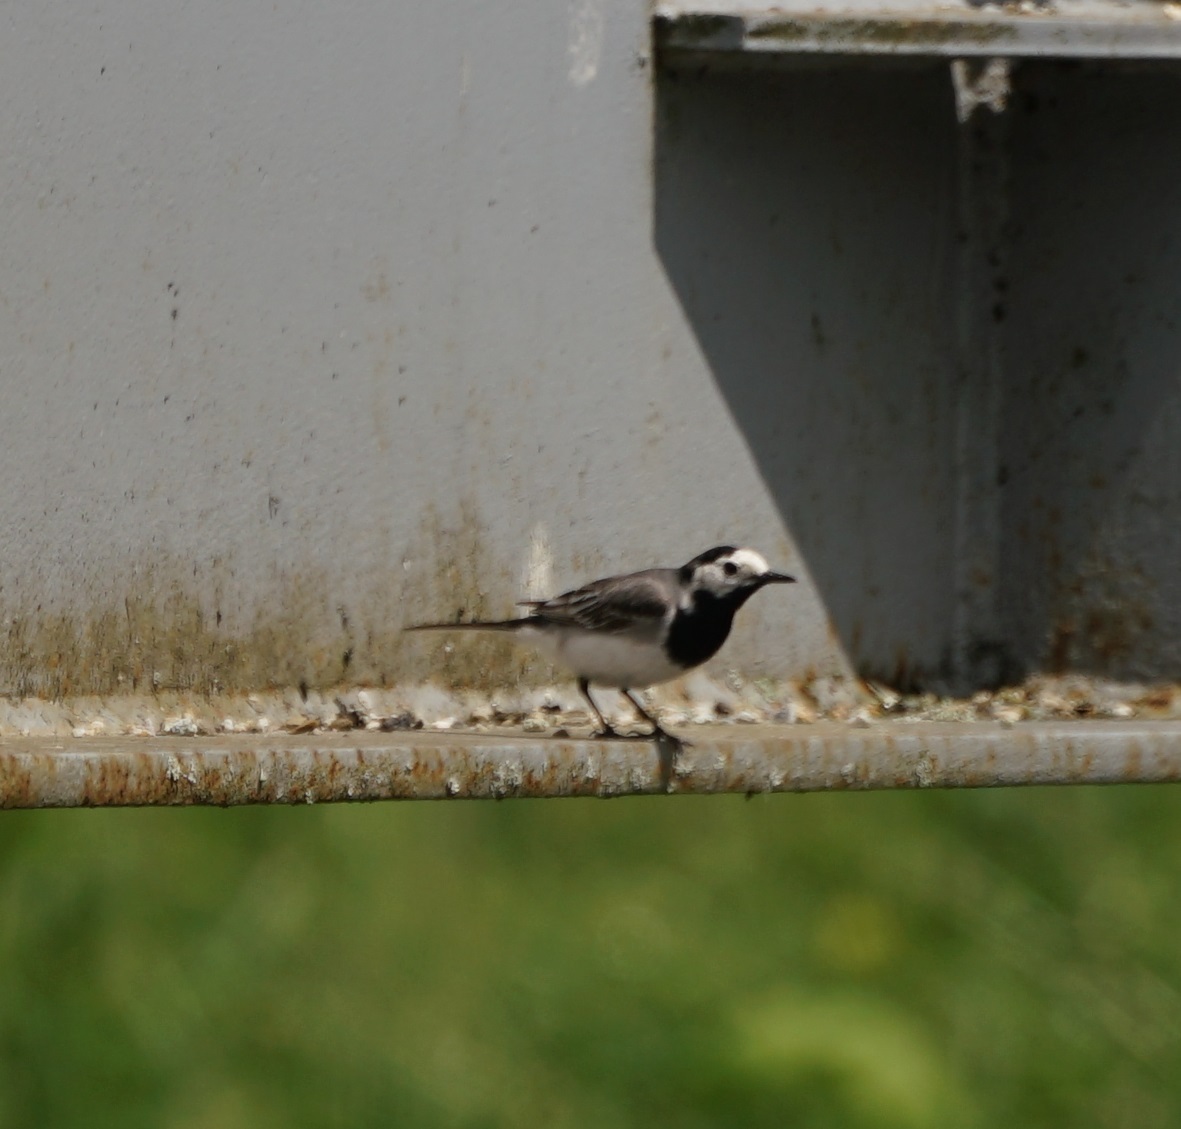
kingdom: Animalia
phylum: Chordata
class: Aves
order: Passeriformes
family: Motacillidae
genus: Motacilla
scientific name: Motacilla alba
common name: White wagtail
